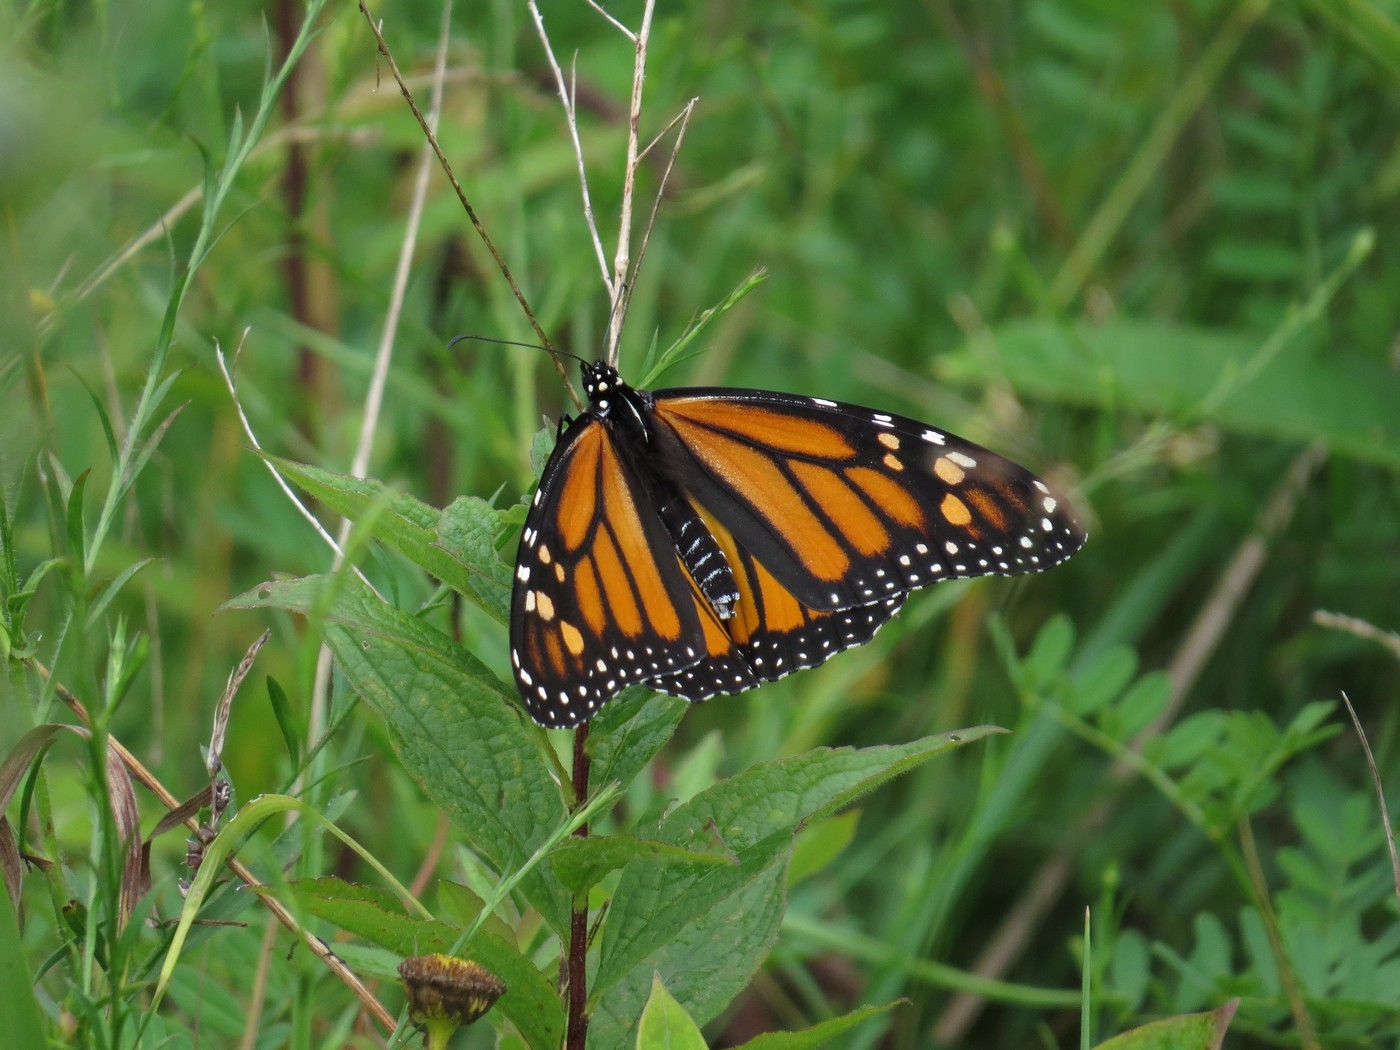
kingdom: Animalia
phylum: Arthropoda
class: Insecta
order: Lepidoptera
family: Nymphalidae
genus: Danaus
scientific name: Danaus plexippus
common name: Monarch
